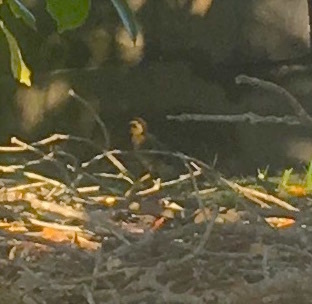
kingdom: Animalia
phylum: Chordata
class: Aves
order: Anseriformes
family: Anatidae
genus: Anas
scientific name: Anas platyrhynchos
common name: Mallard
